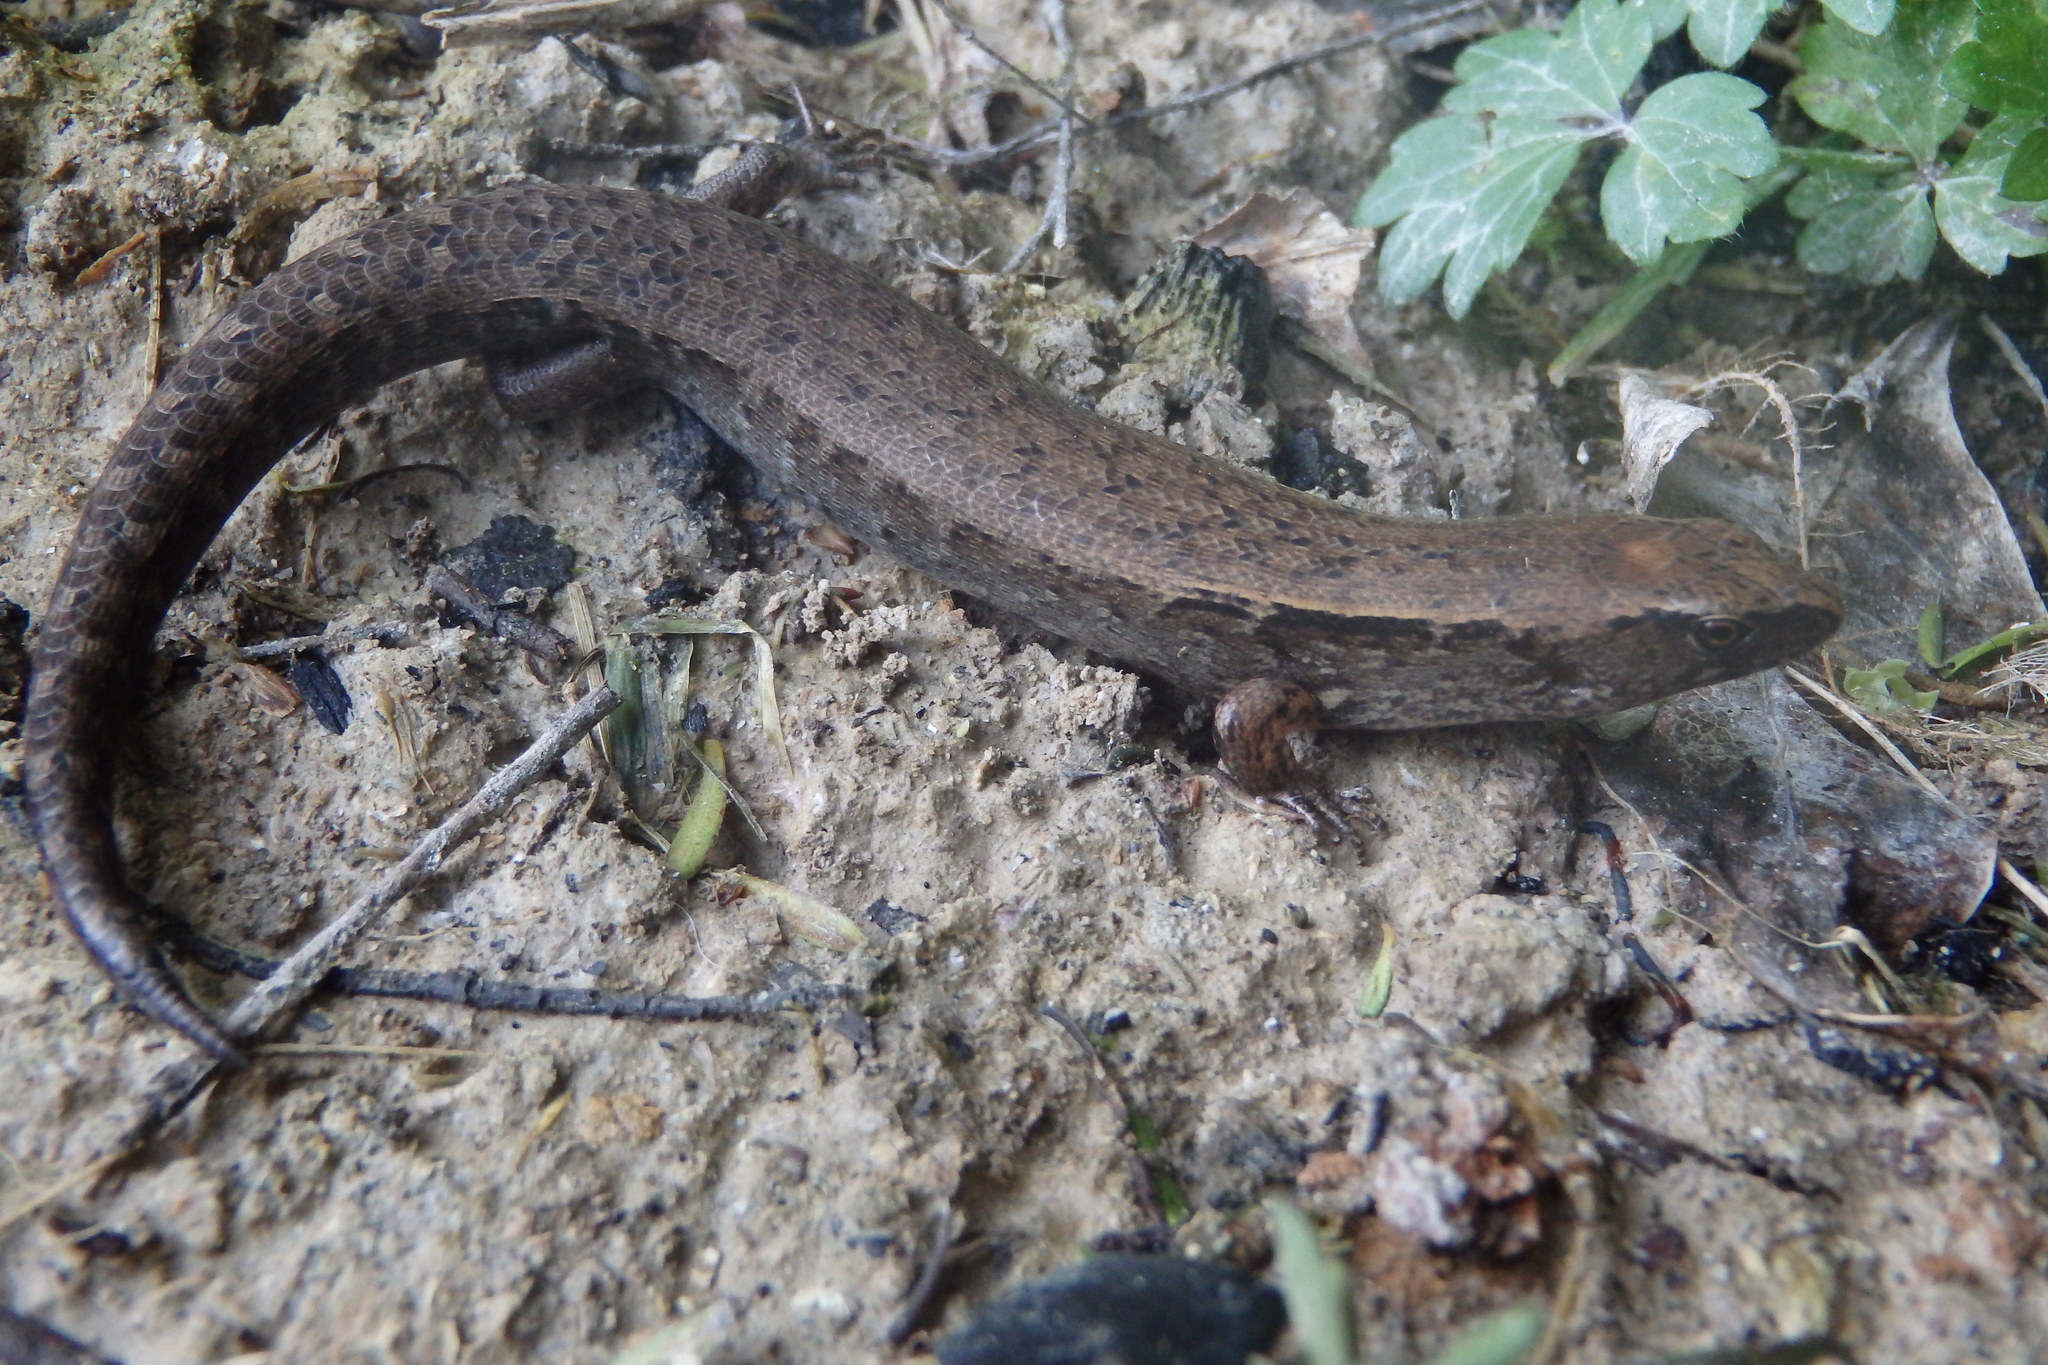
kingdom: Animalia
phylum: Chordata
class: Squamata
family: Scincidae
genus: Oligosoma
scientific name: Oligosoma ornatum
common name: Gray's ornate skink
